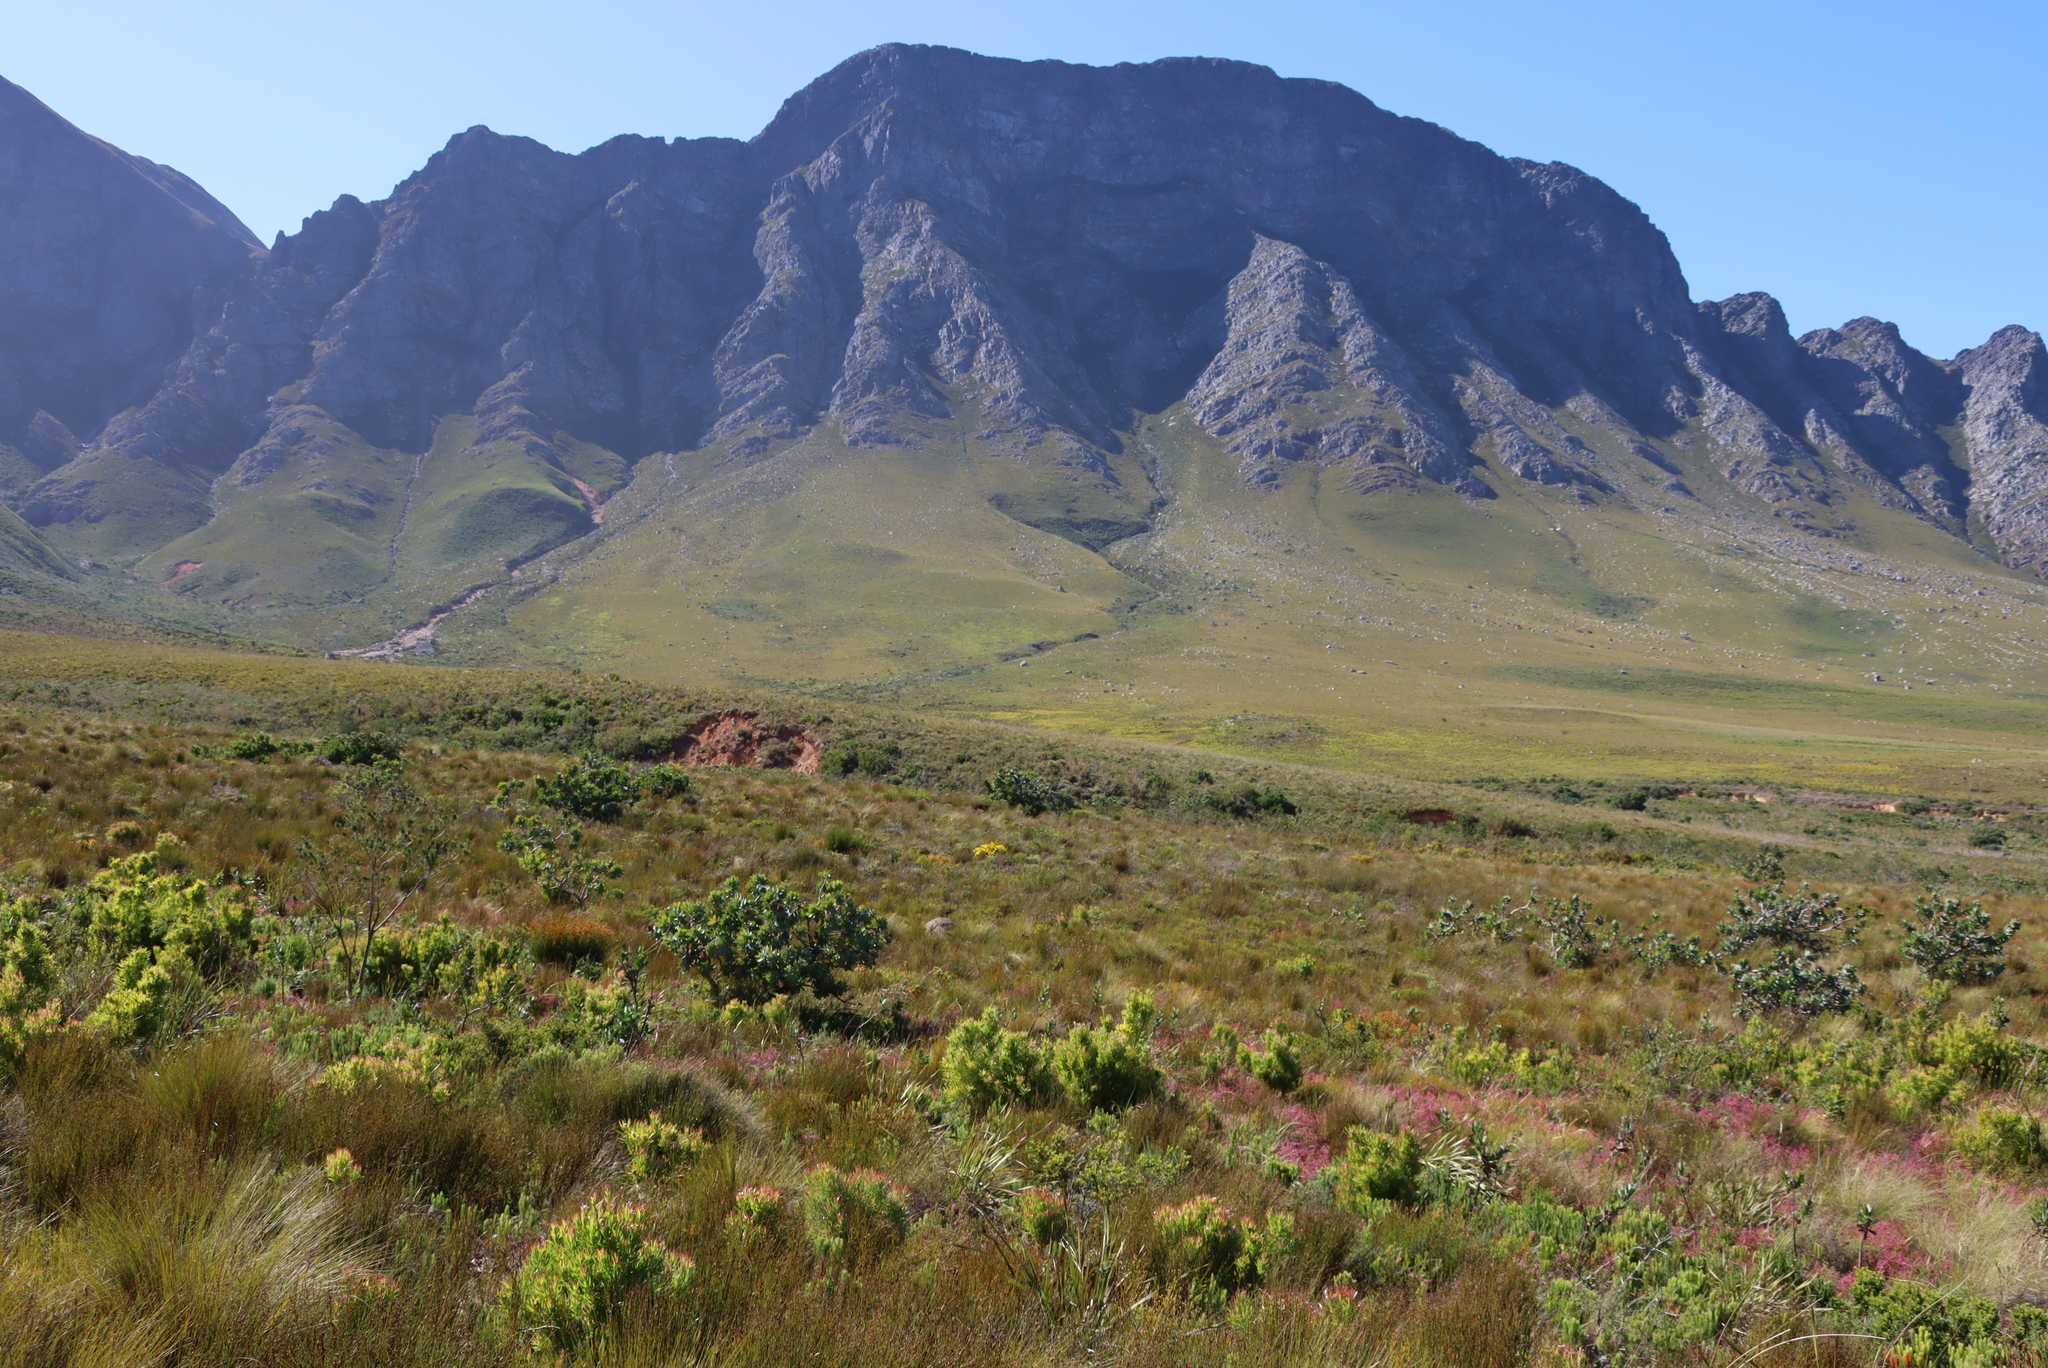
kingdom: Plantae
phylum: Tracheophyta
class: Magnoliopsida
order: Proteales
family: Proteaceae
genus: Protea
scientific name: Protea nitida
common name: Tree protea
